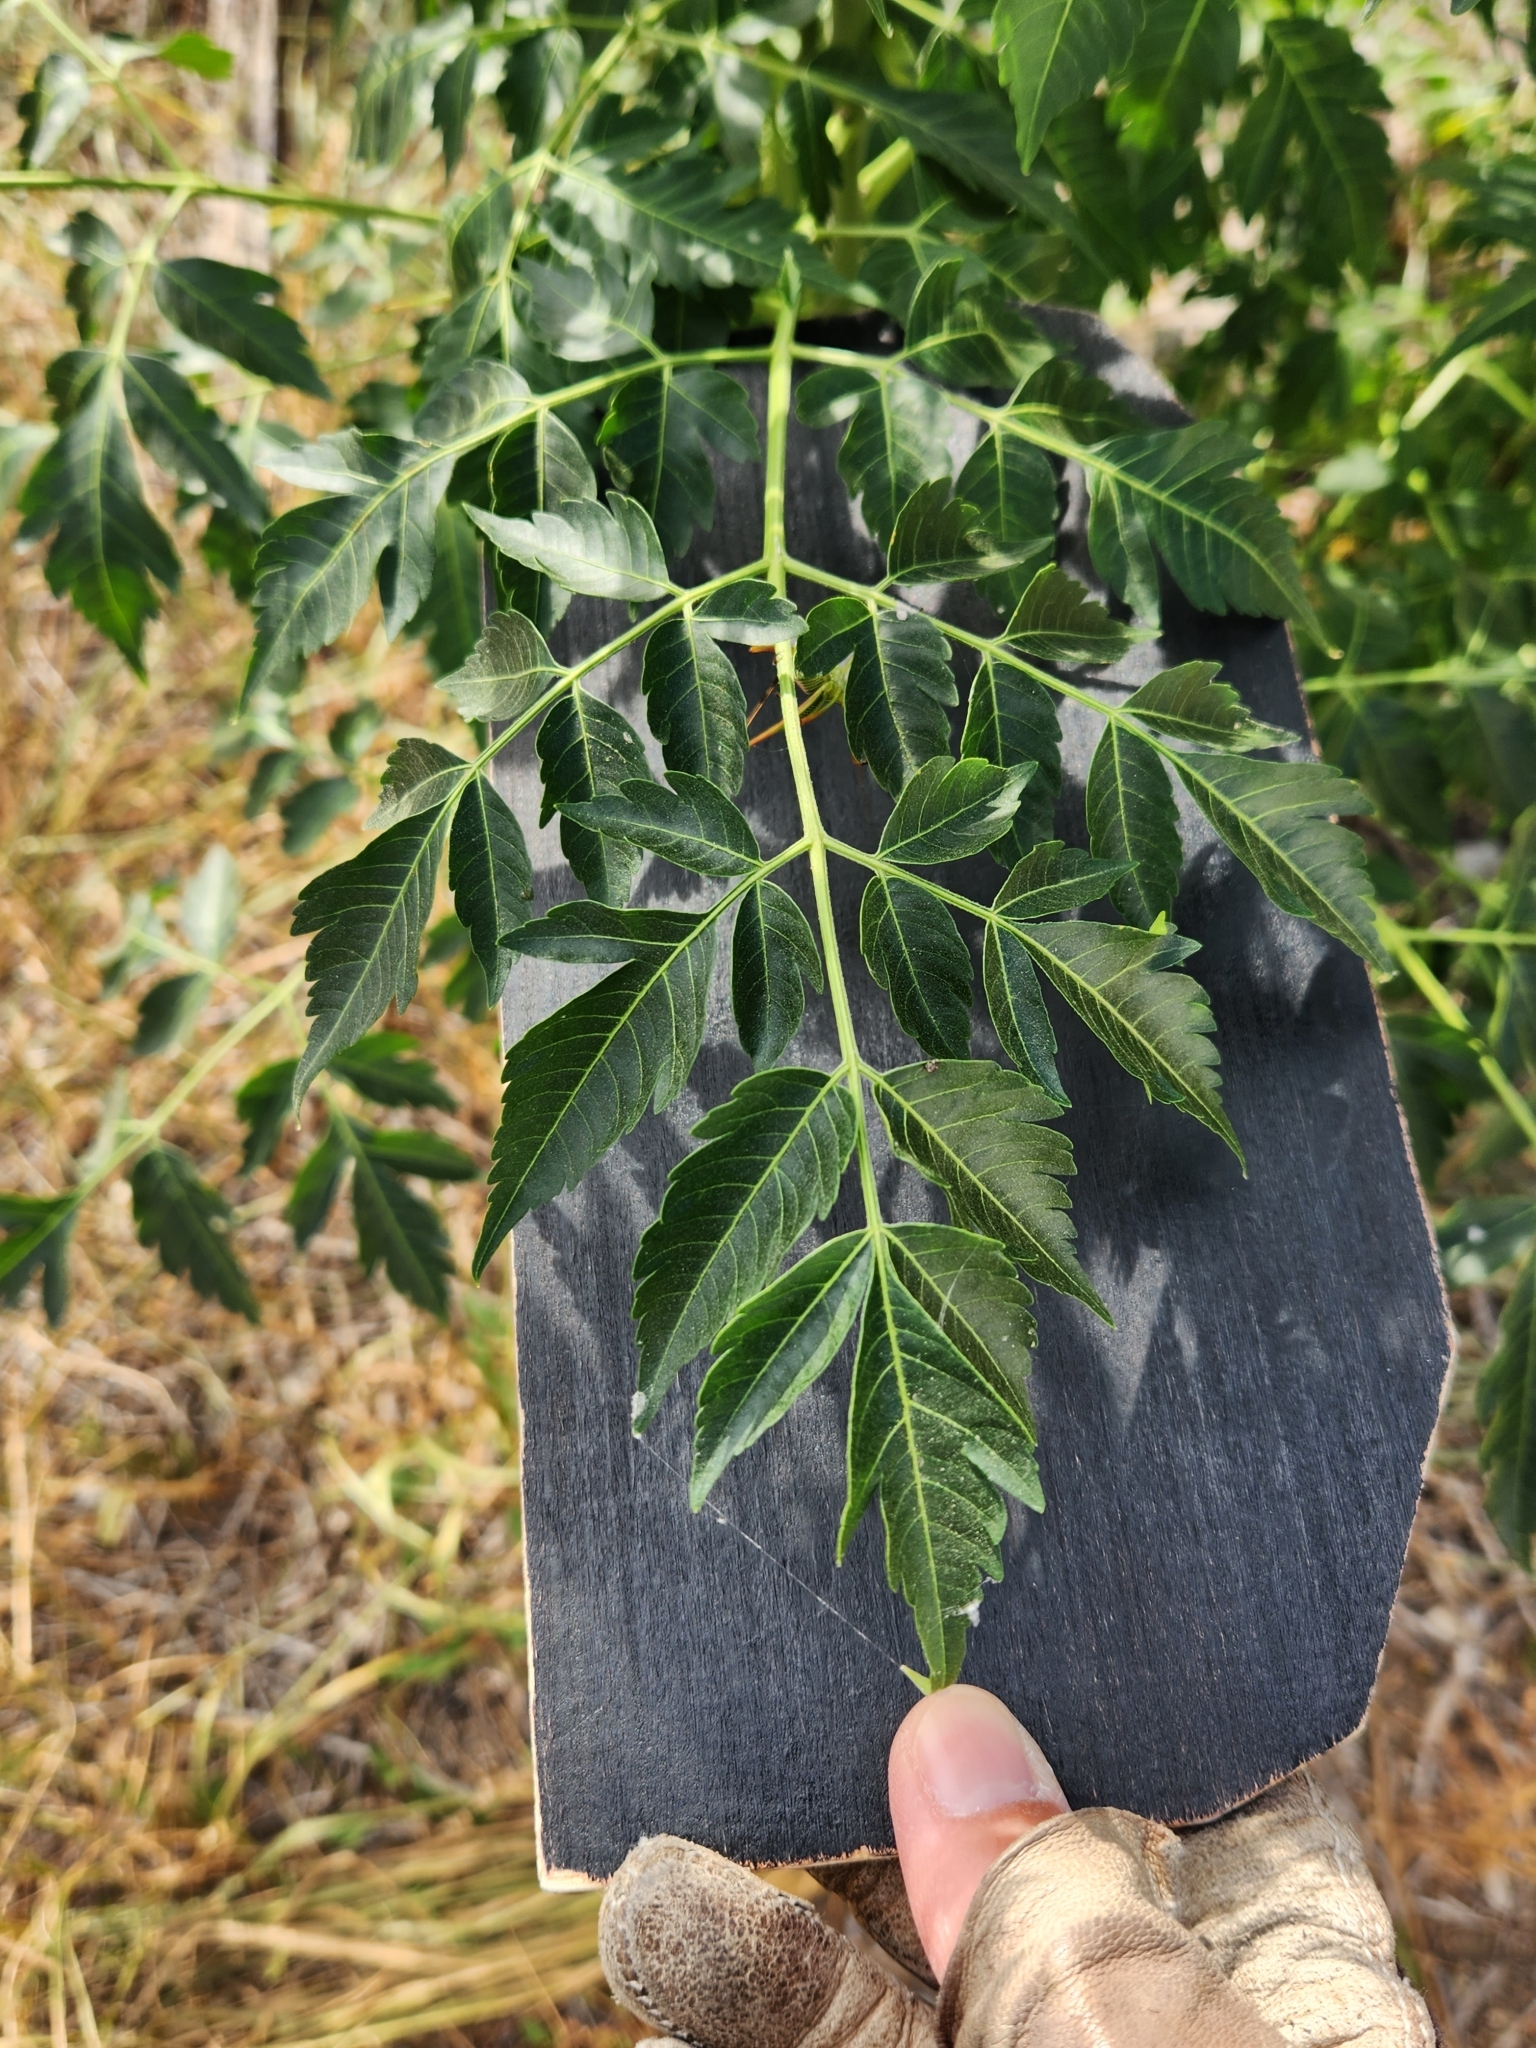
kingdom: Plantae
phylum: Tracheophyta
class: Magnoliopsida
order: Sapindales
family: Meliaceae
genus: Melia
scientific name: Melia azedarach
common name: Chinaberrytree
